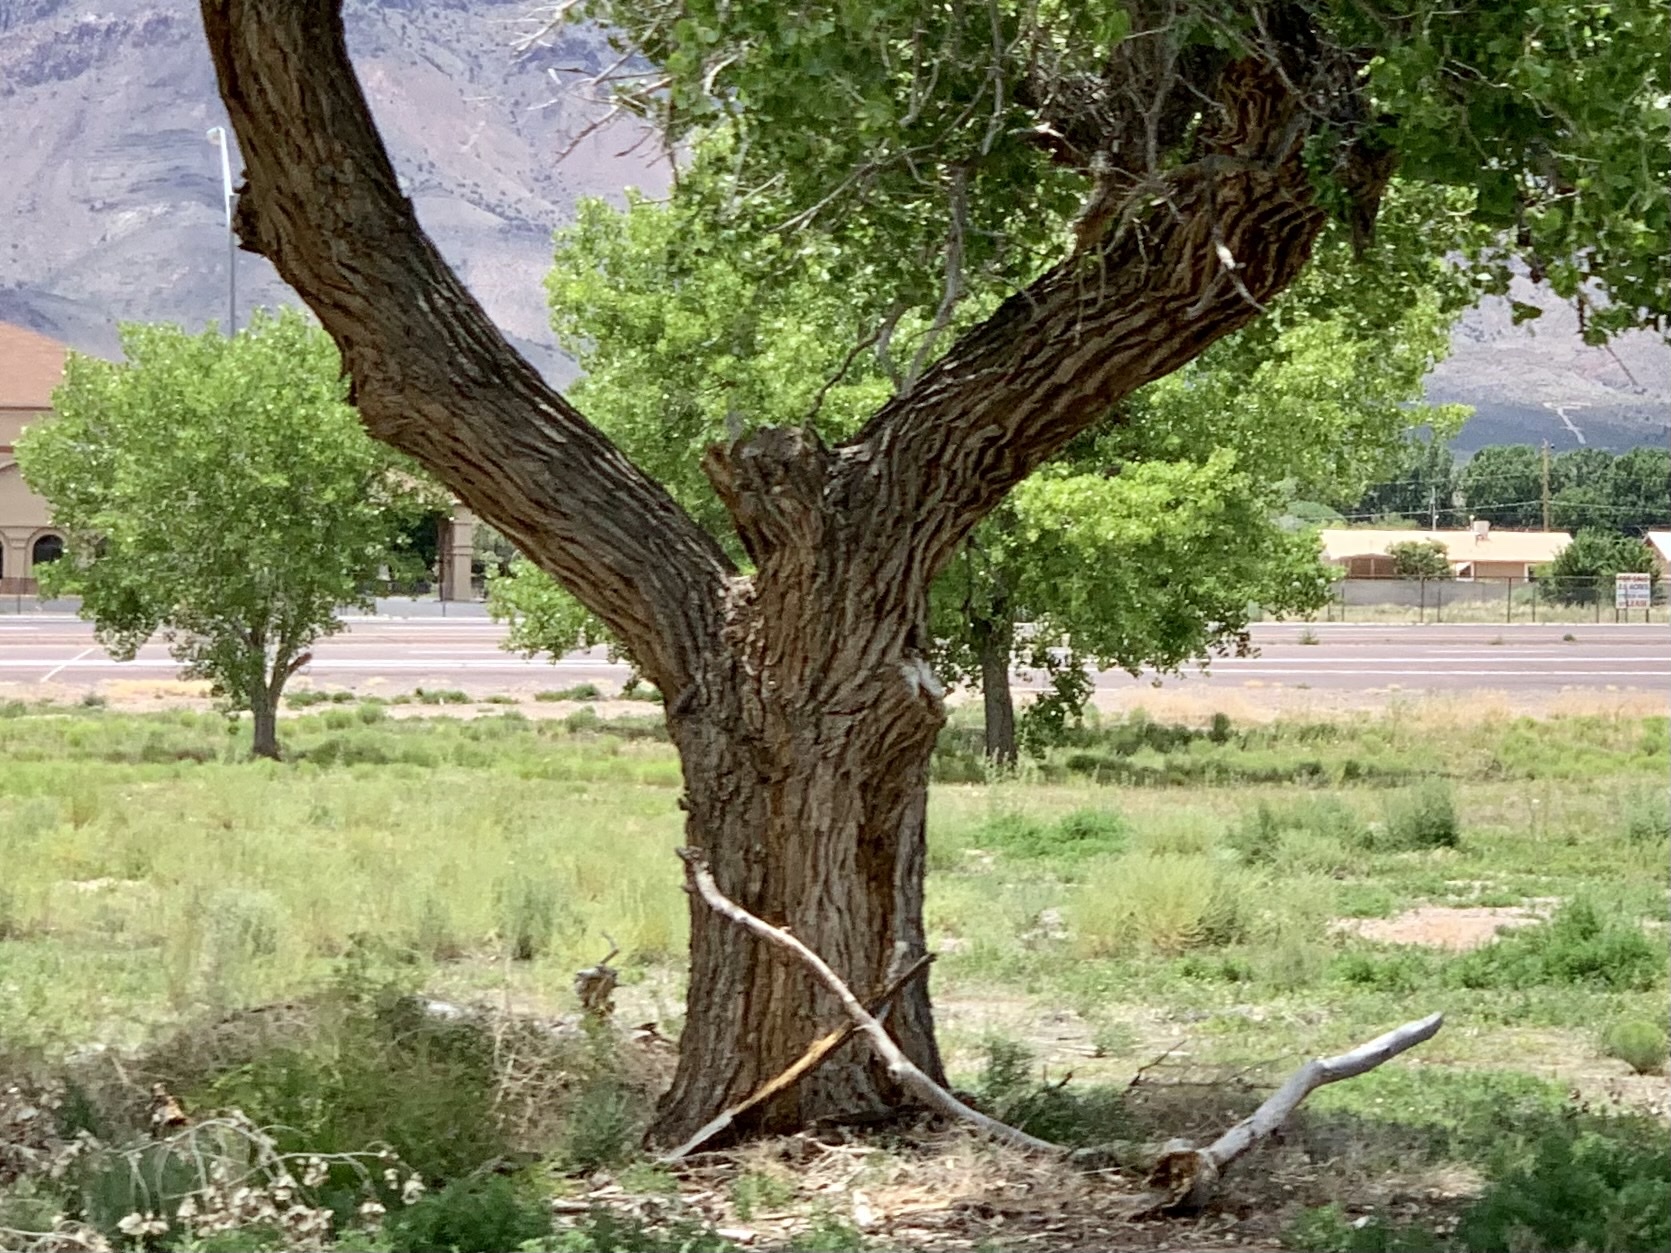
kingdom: Plantae
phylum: Tracheophyta
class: Magnoliopsida
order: Malpighiales
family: Salicaceae
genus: Populus
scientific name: Populus fremontii
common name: Fremont's cottonwood
